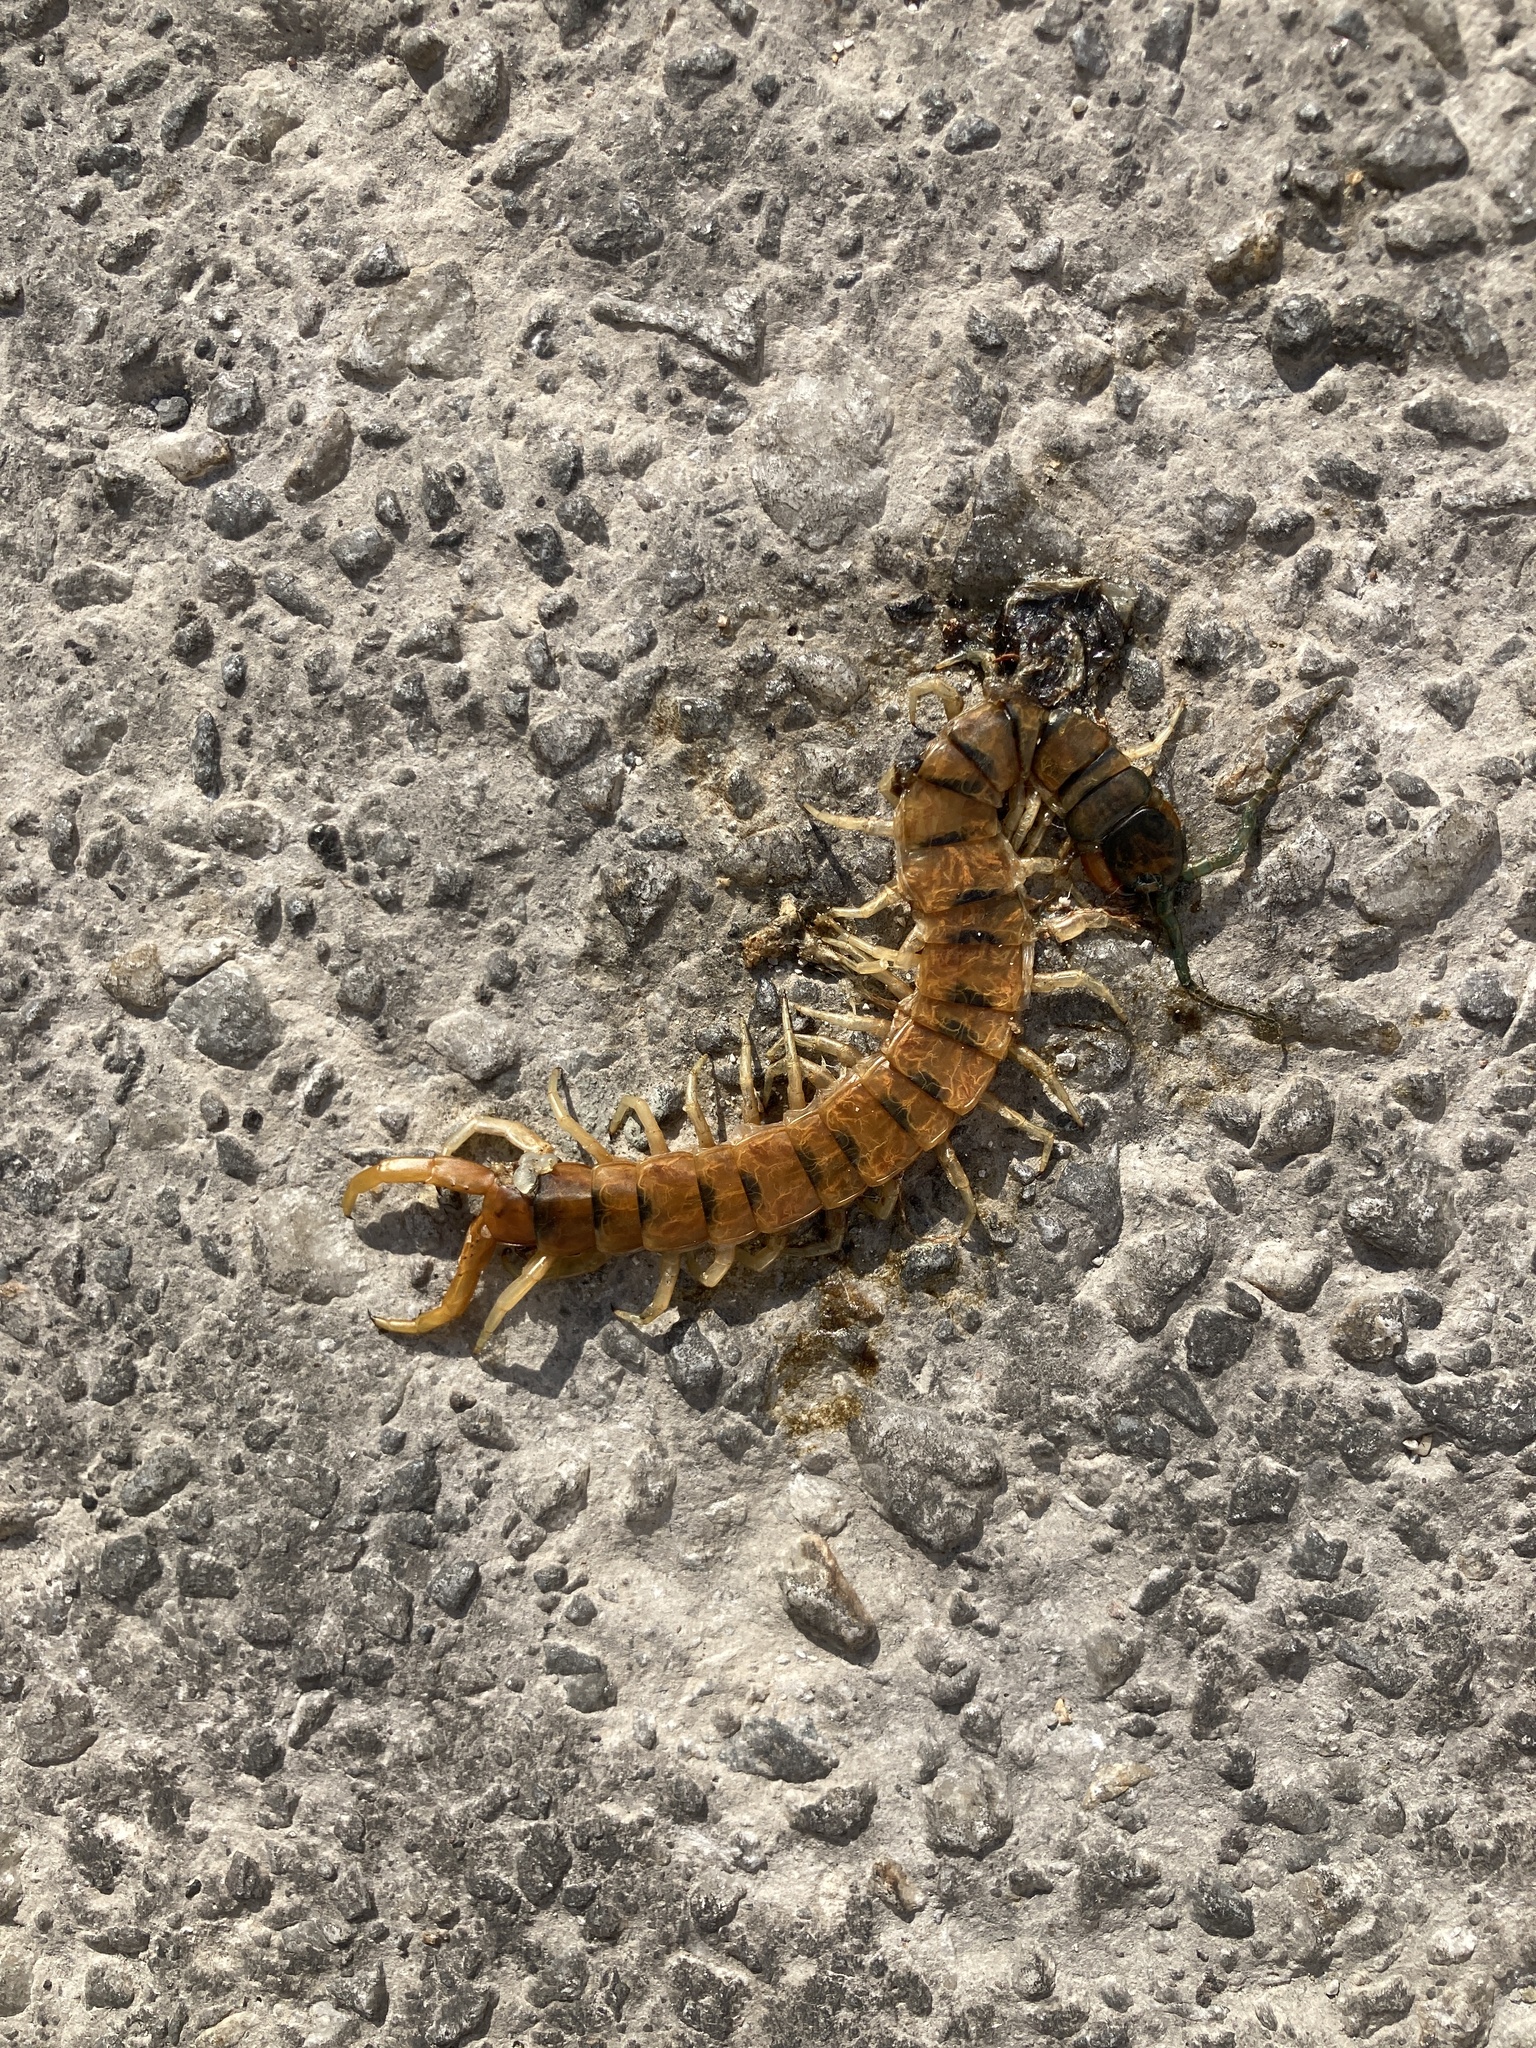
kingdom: Animalia
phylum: Arthropoda
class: Chilopoda
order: Scolopendromorpha
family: Scolopendridae
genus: Scolopendra
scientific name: Scolopendra cingulata
